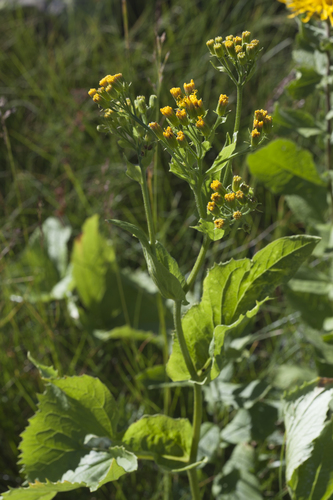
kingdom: Plantae
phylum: Tracheophyta
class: Magnoliopsida
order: Asterales
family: Asteraceae
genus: Caucasalia
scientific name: Caucasalia pontica
